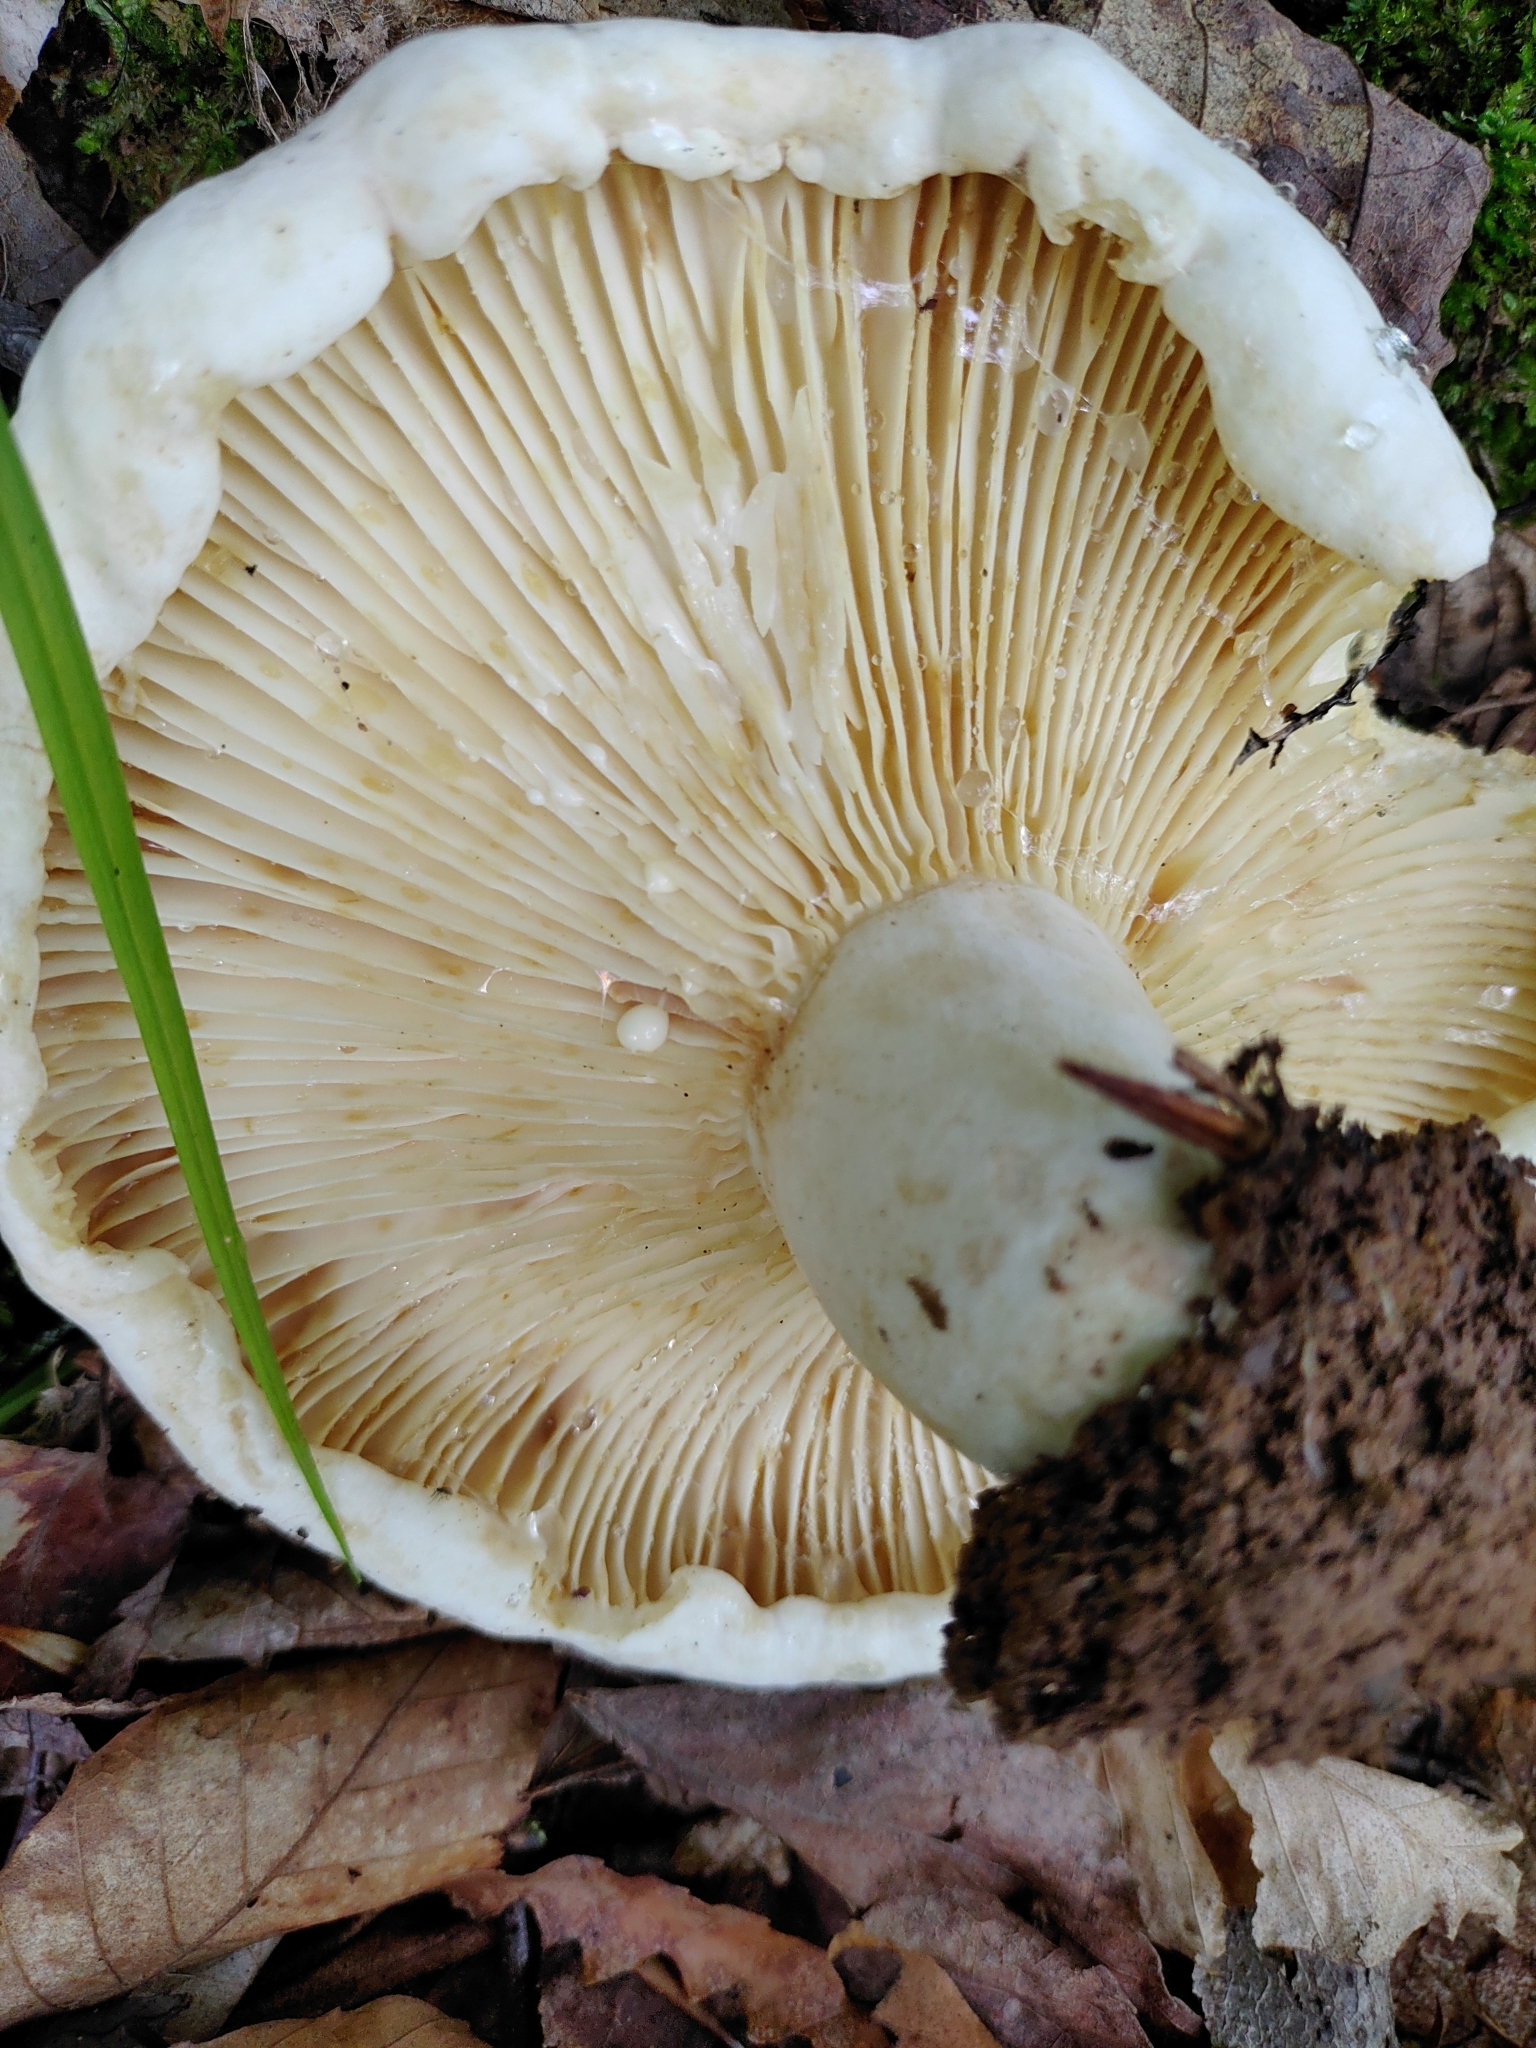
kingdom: Fungi
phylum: Basidiomycota
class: Agaricomycetes
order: Russulales
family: Russulaceae
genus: Lactifluus
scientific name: Lactifluus subvellereus
